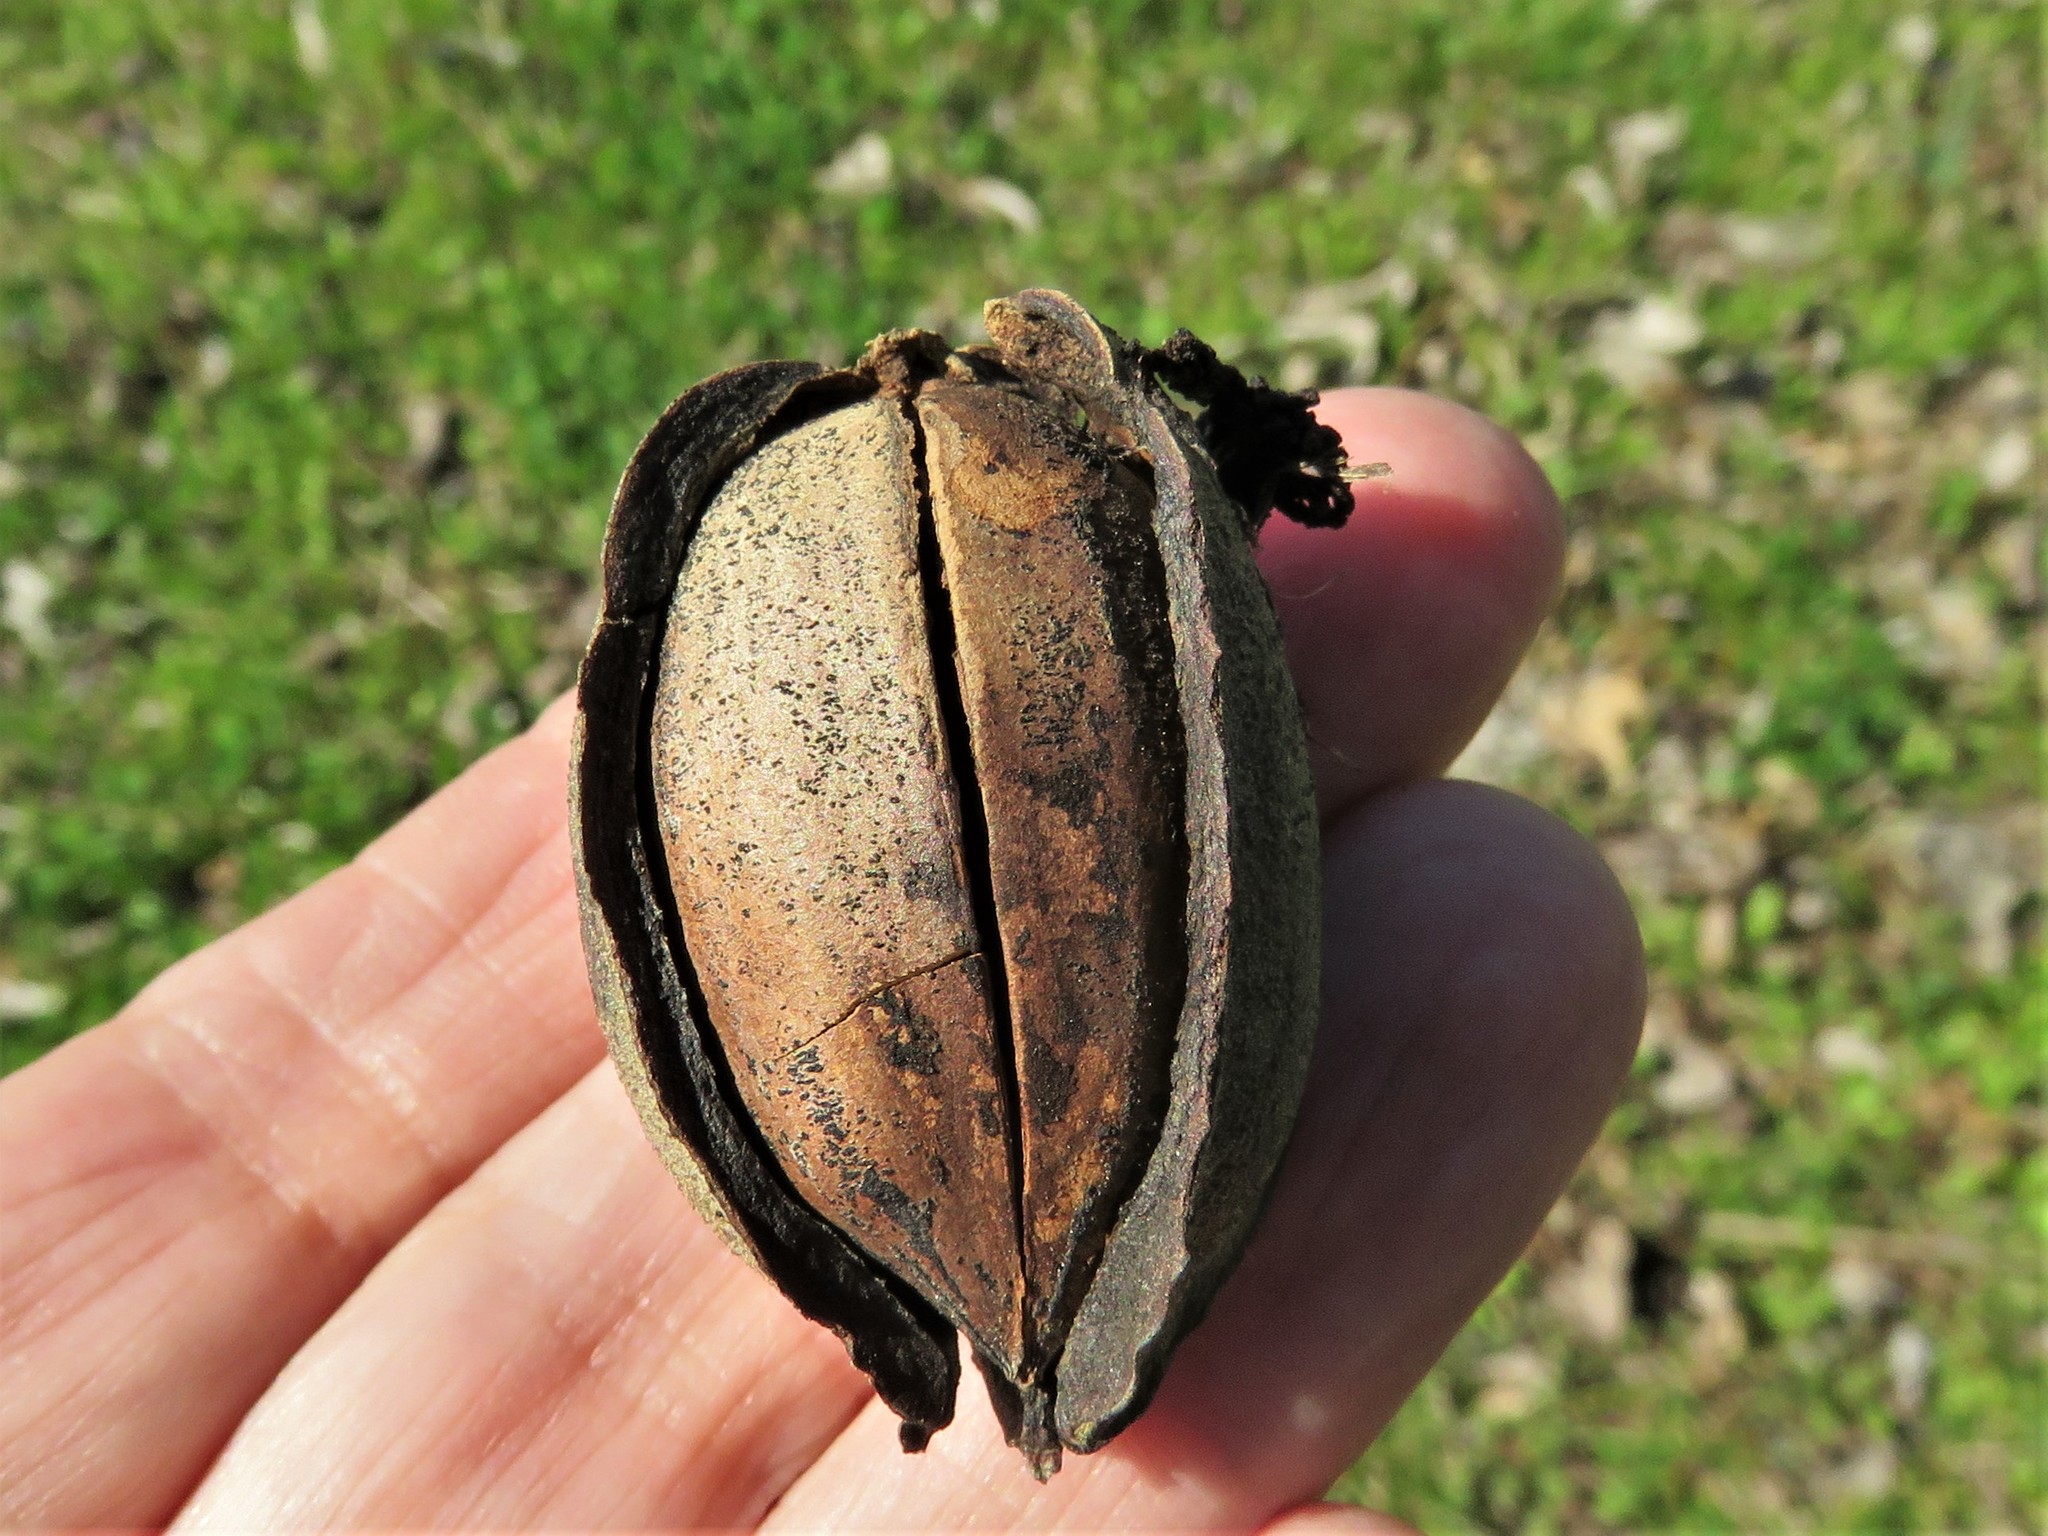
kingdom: Plantae
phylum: Tracheophyta
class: Magnoliopsida
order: Fagales
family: Juglandaceae
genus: Carya
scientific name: Carya illinoinensis
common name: Pecan
